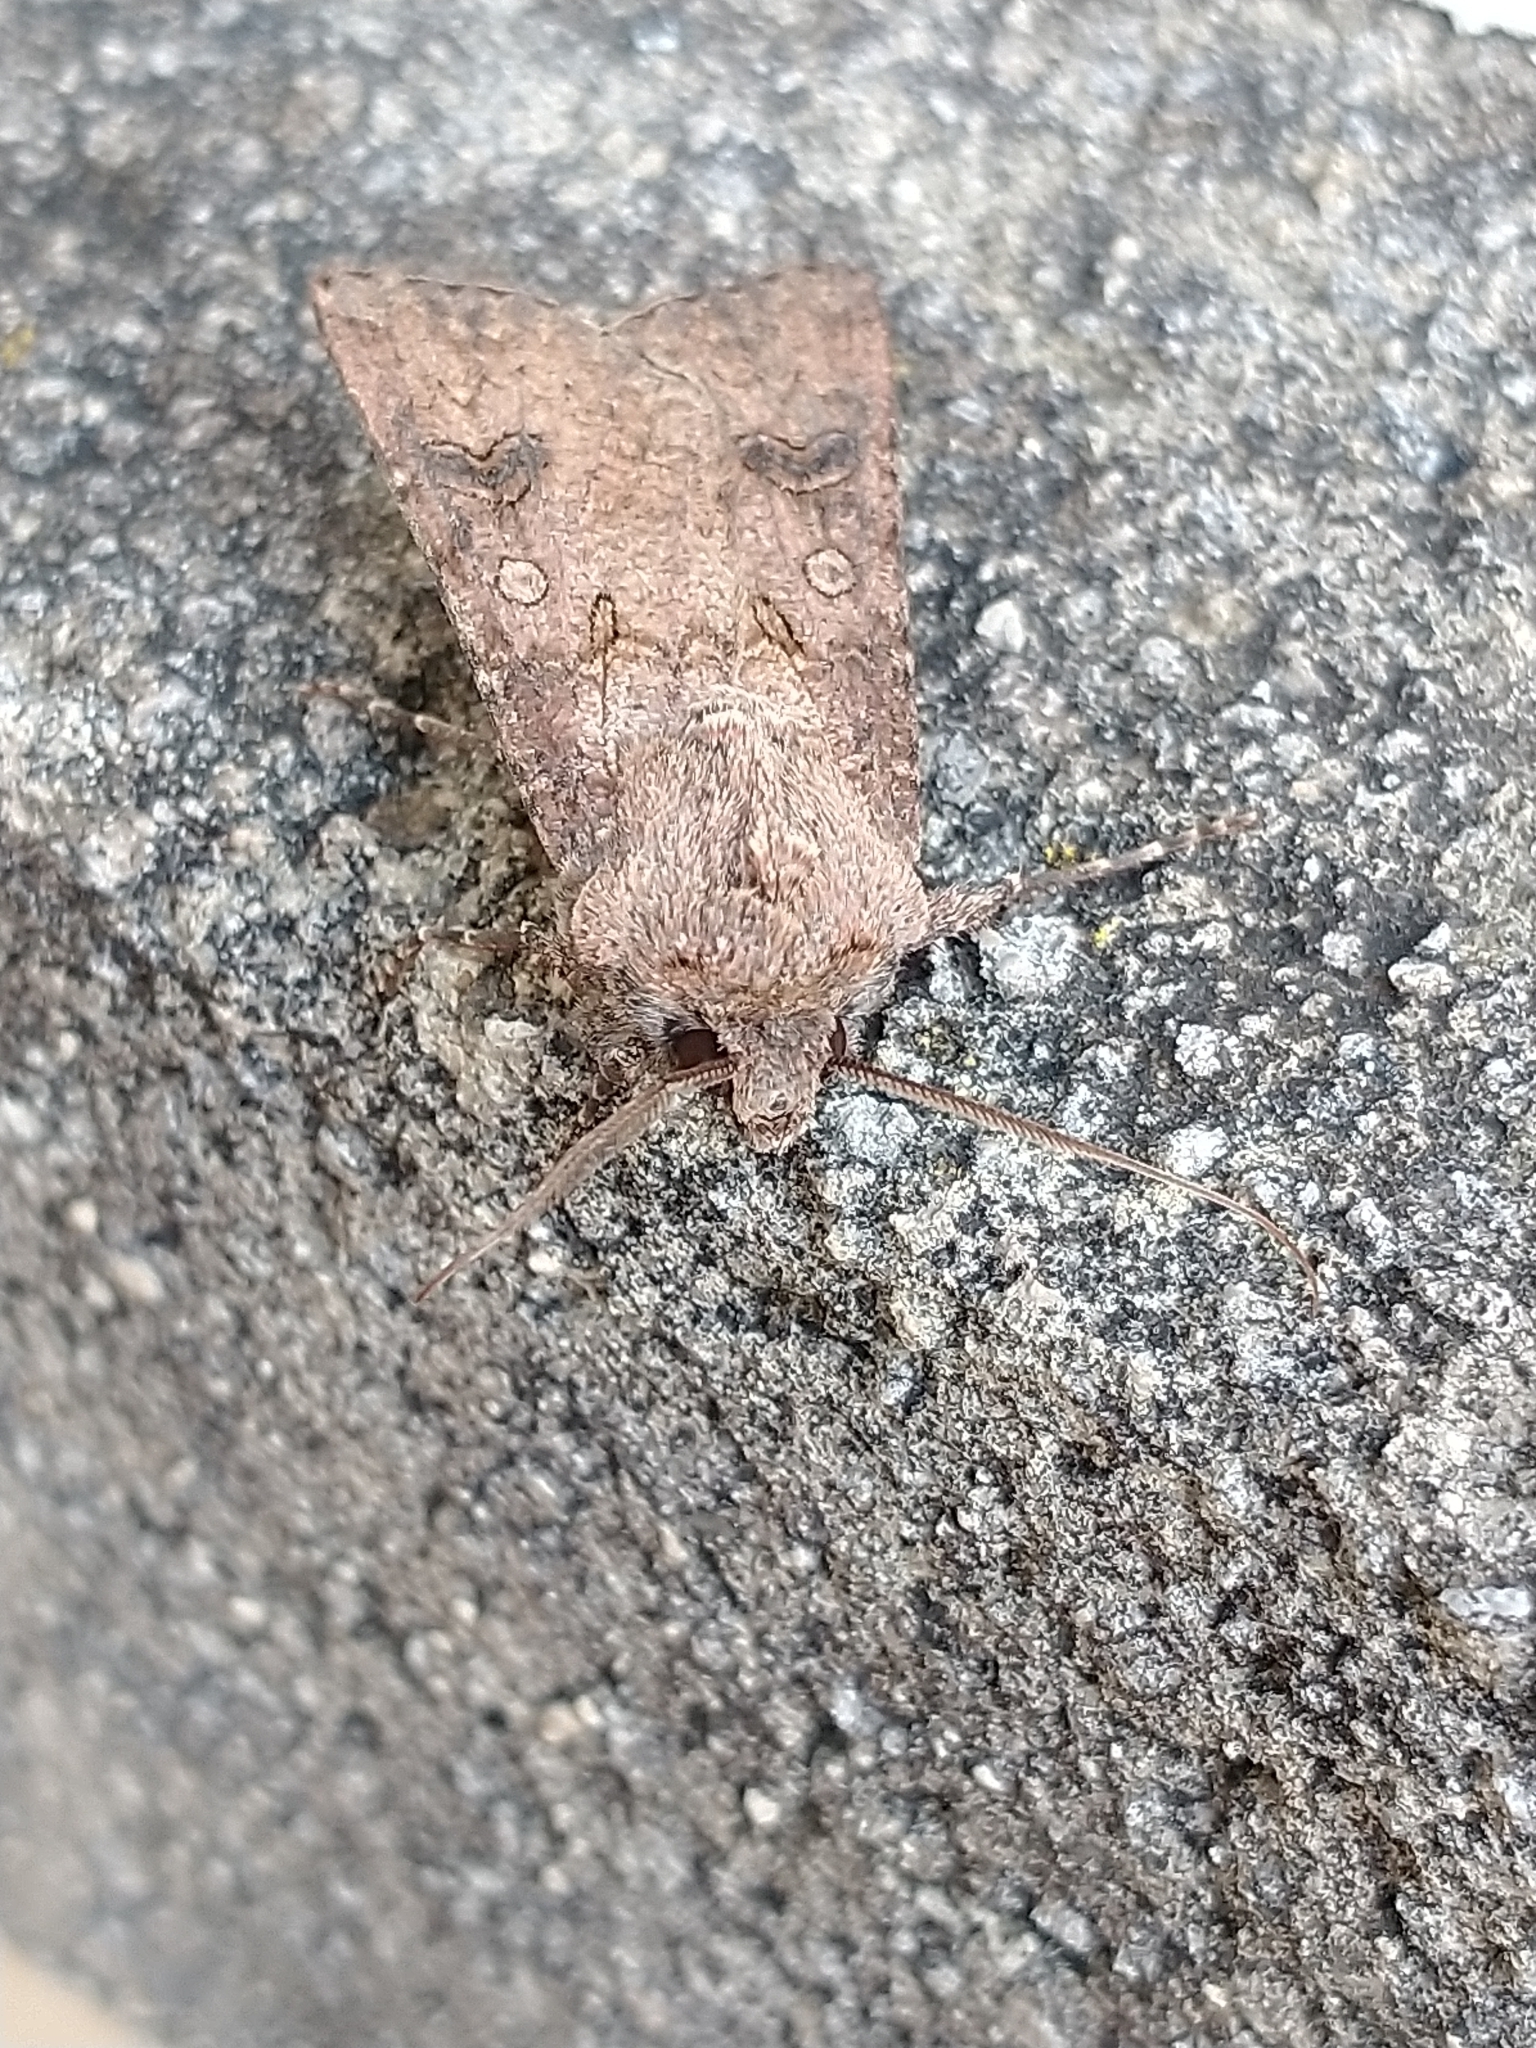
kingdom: Animalia
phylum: Arthropoda
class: Insecta
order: Lepidoptera
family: Noctuidae
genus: Agrotis
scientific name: Agrotis segetum
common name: Turnip moth
